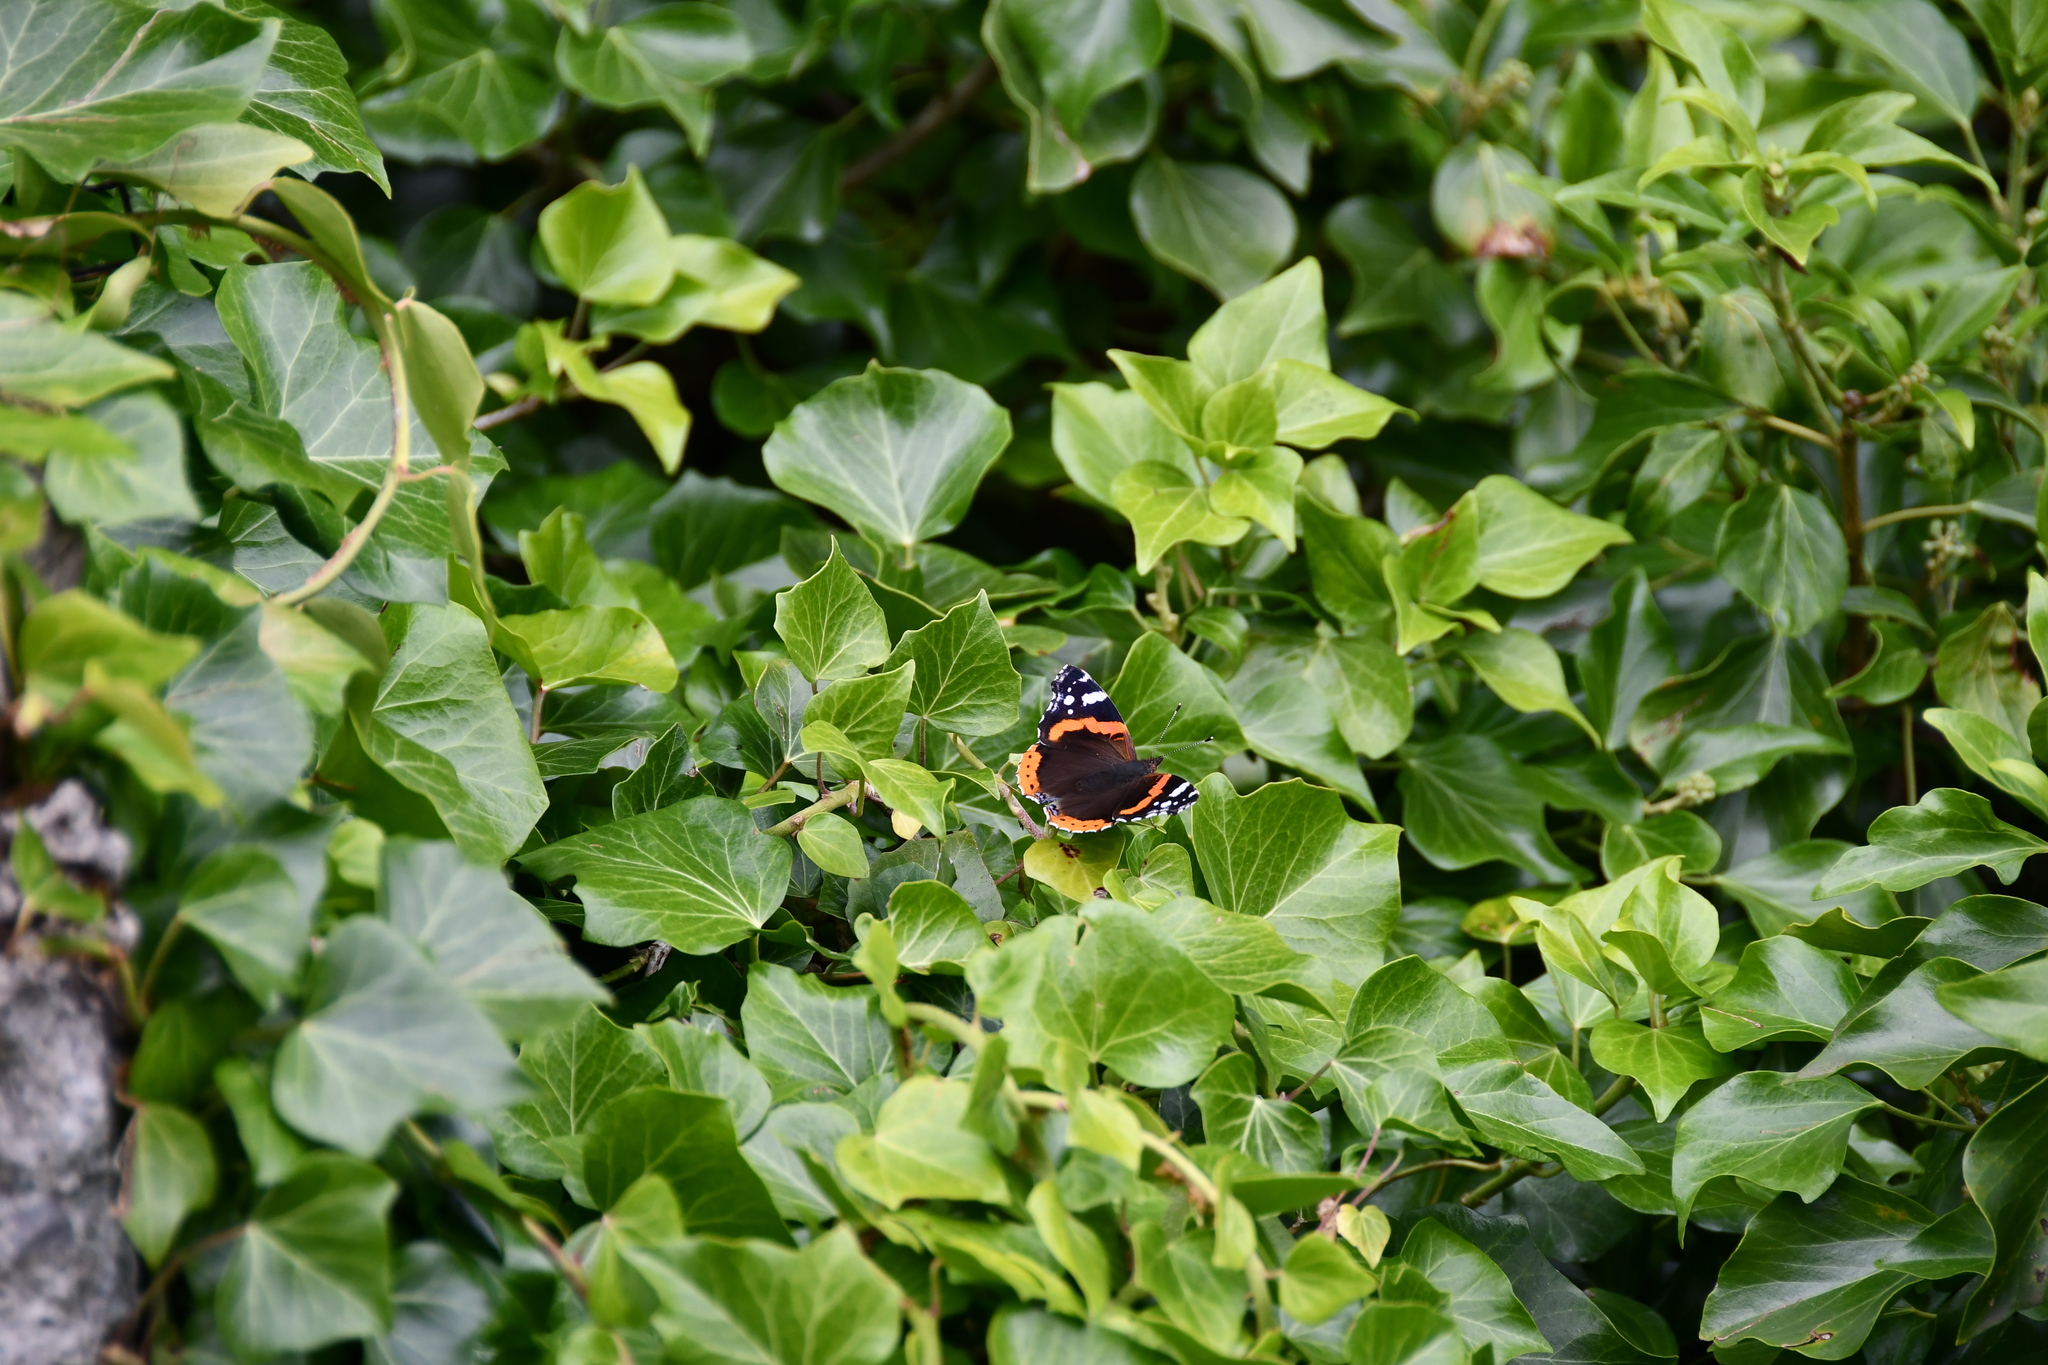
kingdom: Animalia
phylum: Arthropoda
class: Insecta
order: Lepidoptera
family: Nymphalidae
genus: Vanessa
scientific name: Vanessa atalanta
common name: Red admiral
